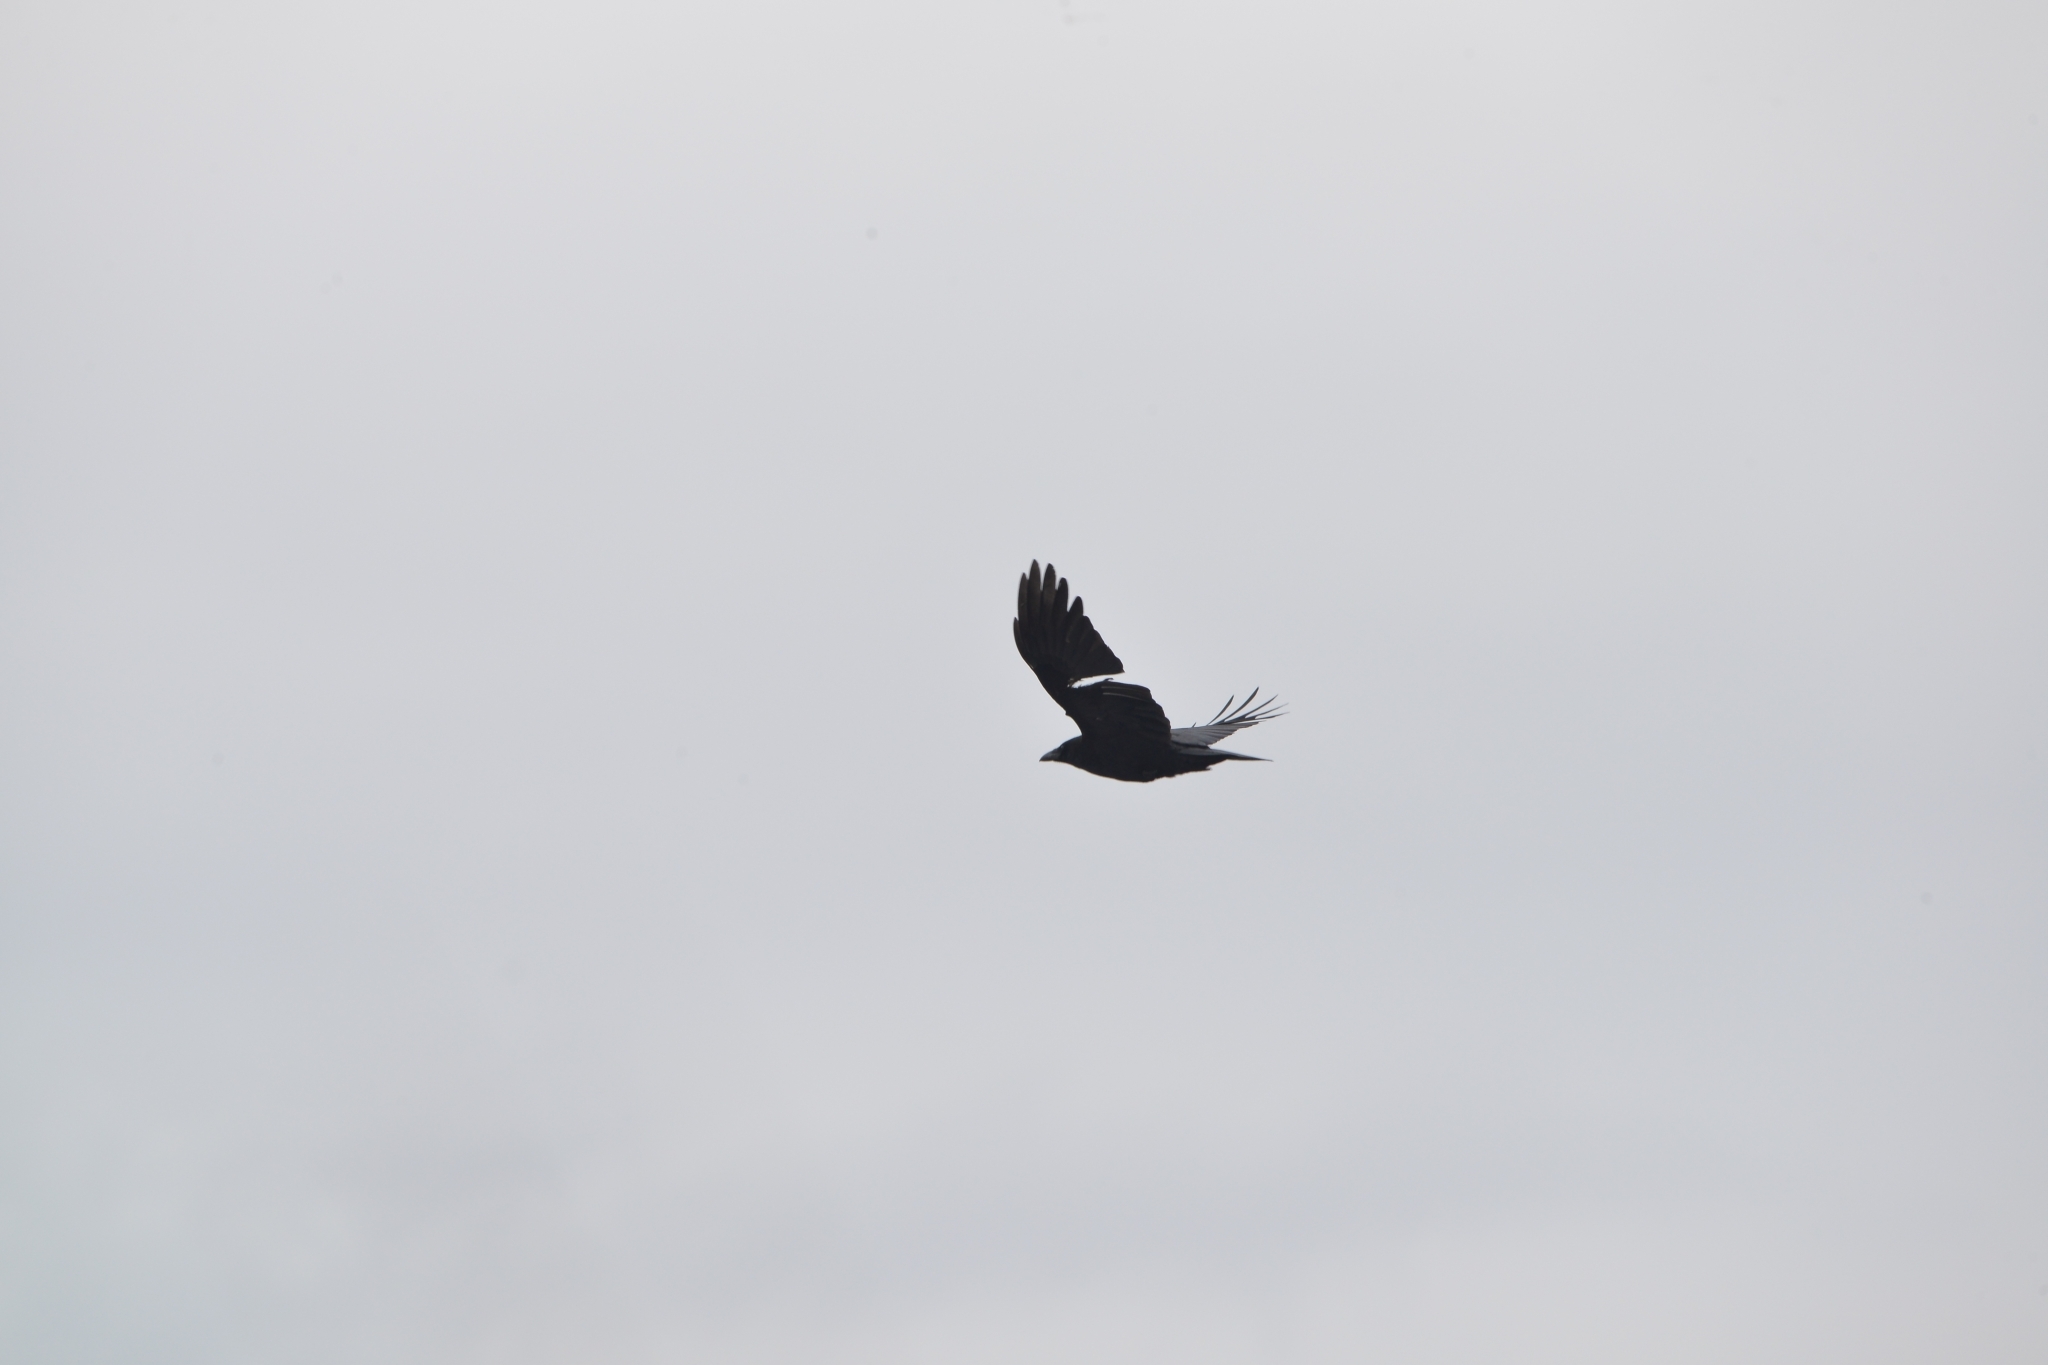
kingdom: Animalia
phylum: Chordata
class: Aves
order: Passeriformes
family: Corvidae
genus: Corvus
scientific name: Corvus corone
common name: Carrion crow
